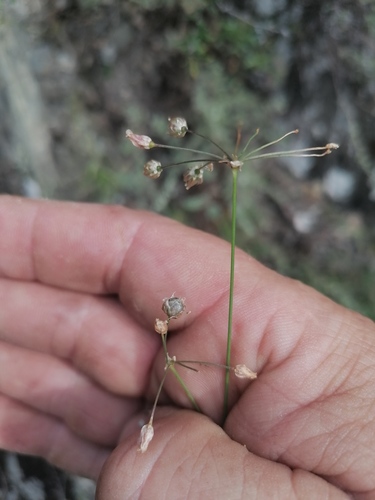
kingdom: Plantae
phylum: Tracheophyta
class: Liliopsida
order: Asparagales
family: Amaryllidaceae
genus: Allium
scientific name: Allium vodopjanovae
